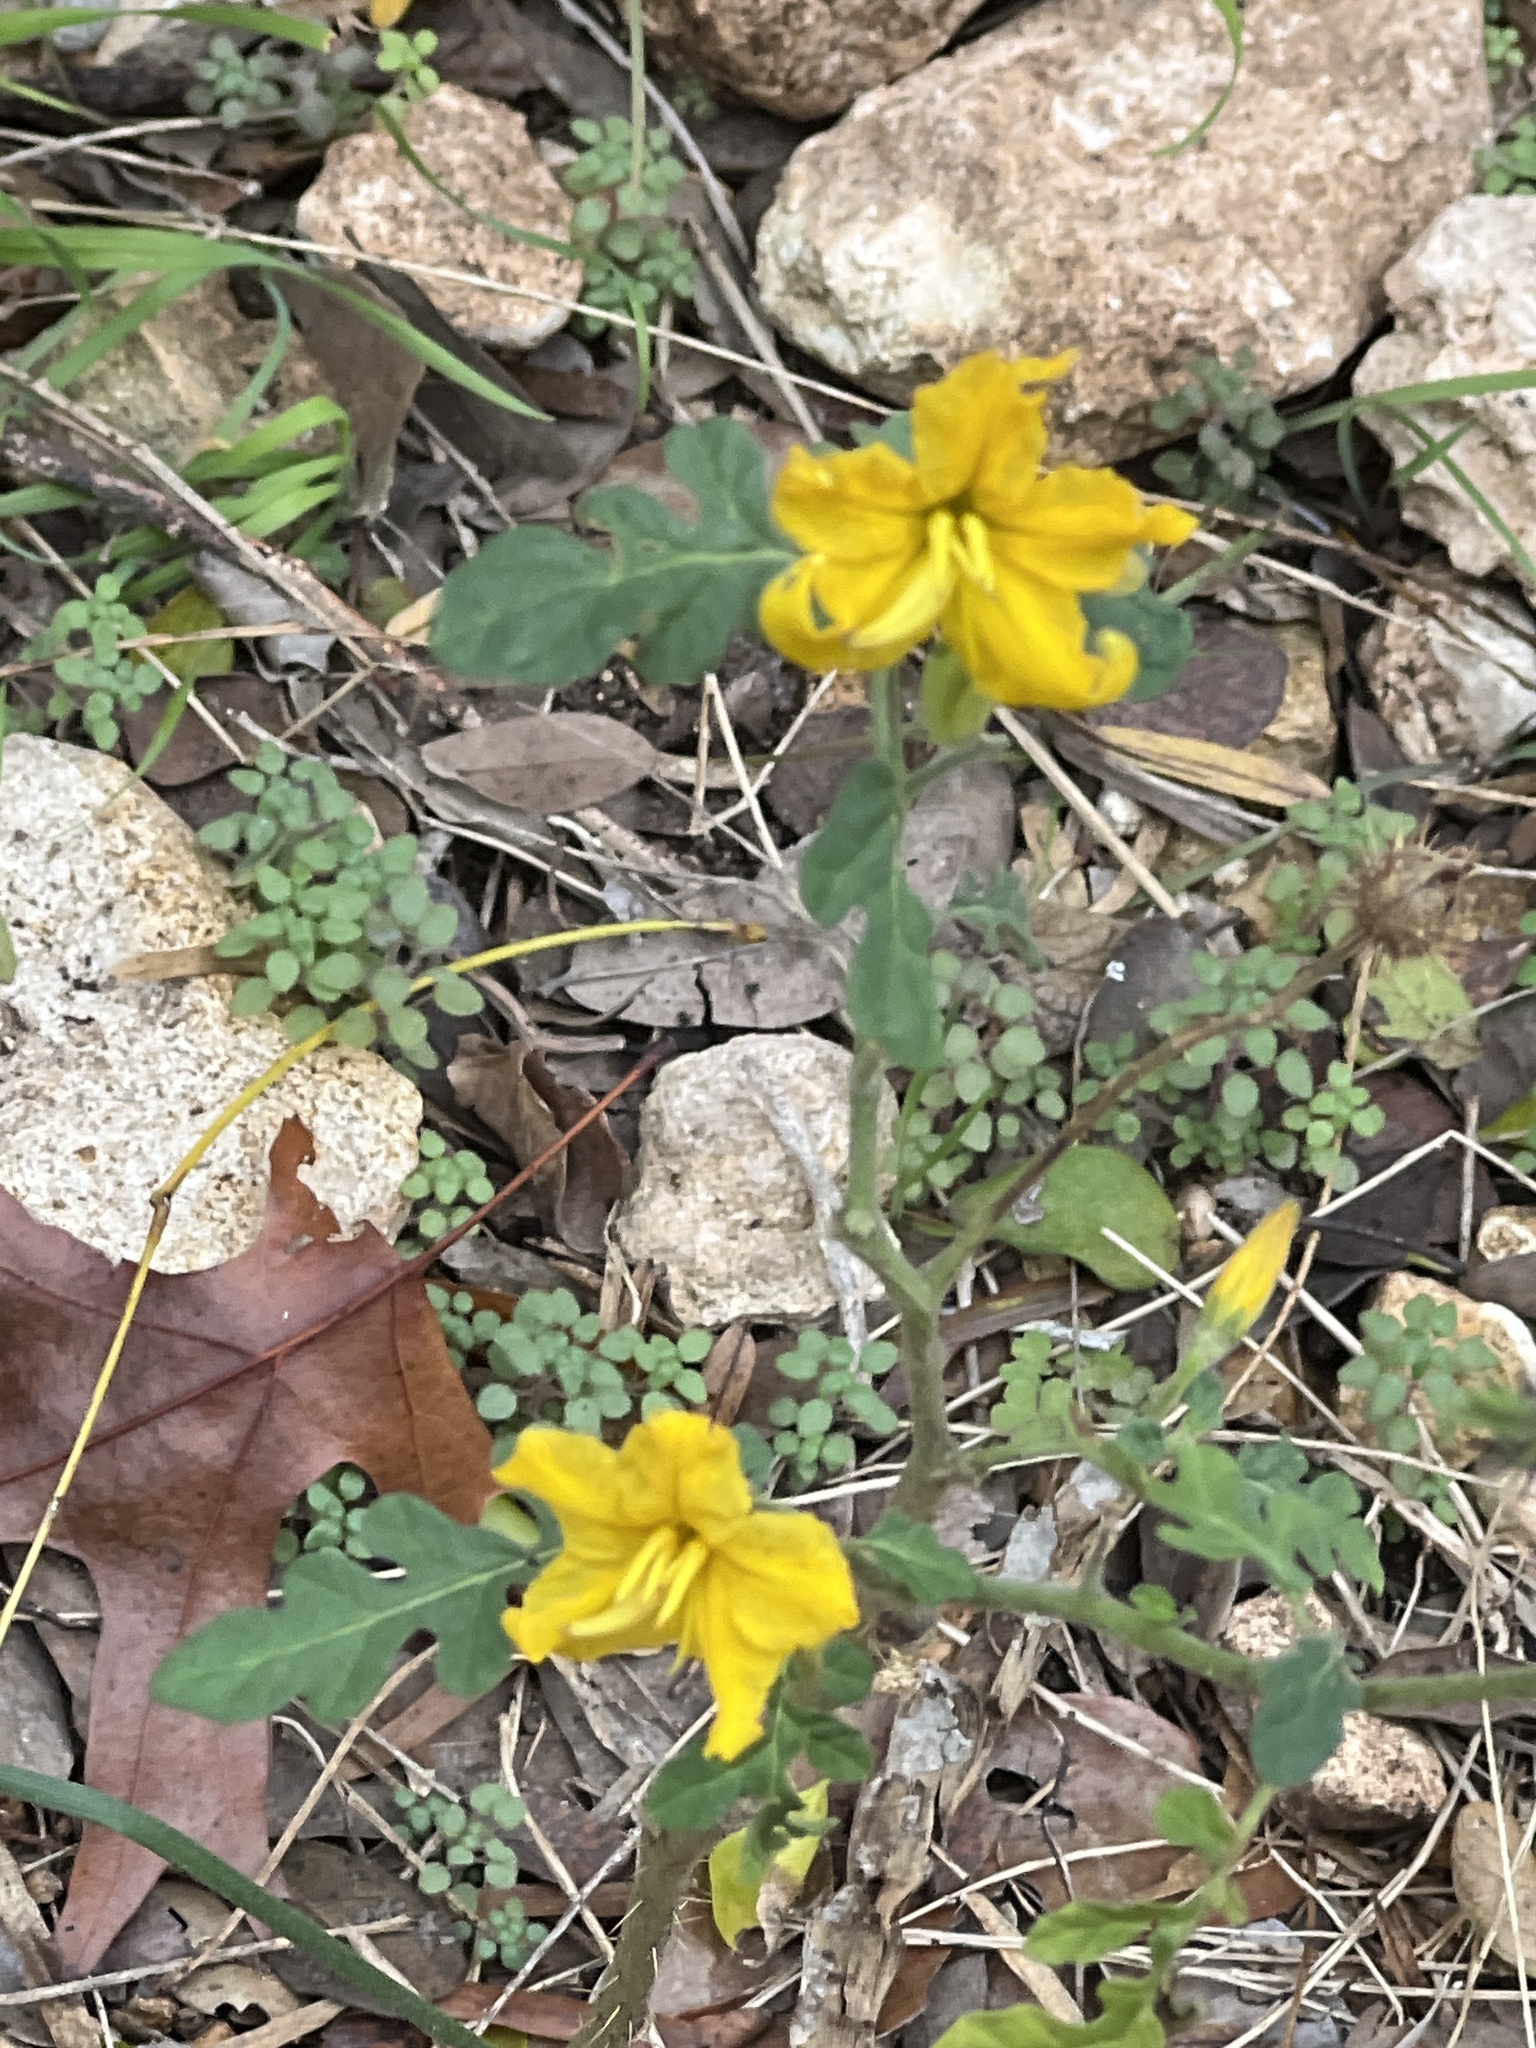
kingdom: Plantae
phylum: Tracheophyta
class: Magnoliopsida
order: Solanales
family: Solanaceae
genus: Solanum
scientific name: Solanum angustifolium
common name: Buffalobur nightshade
